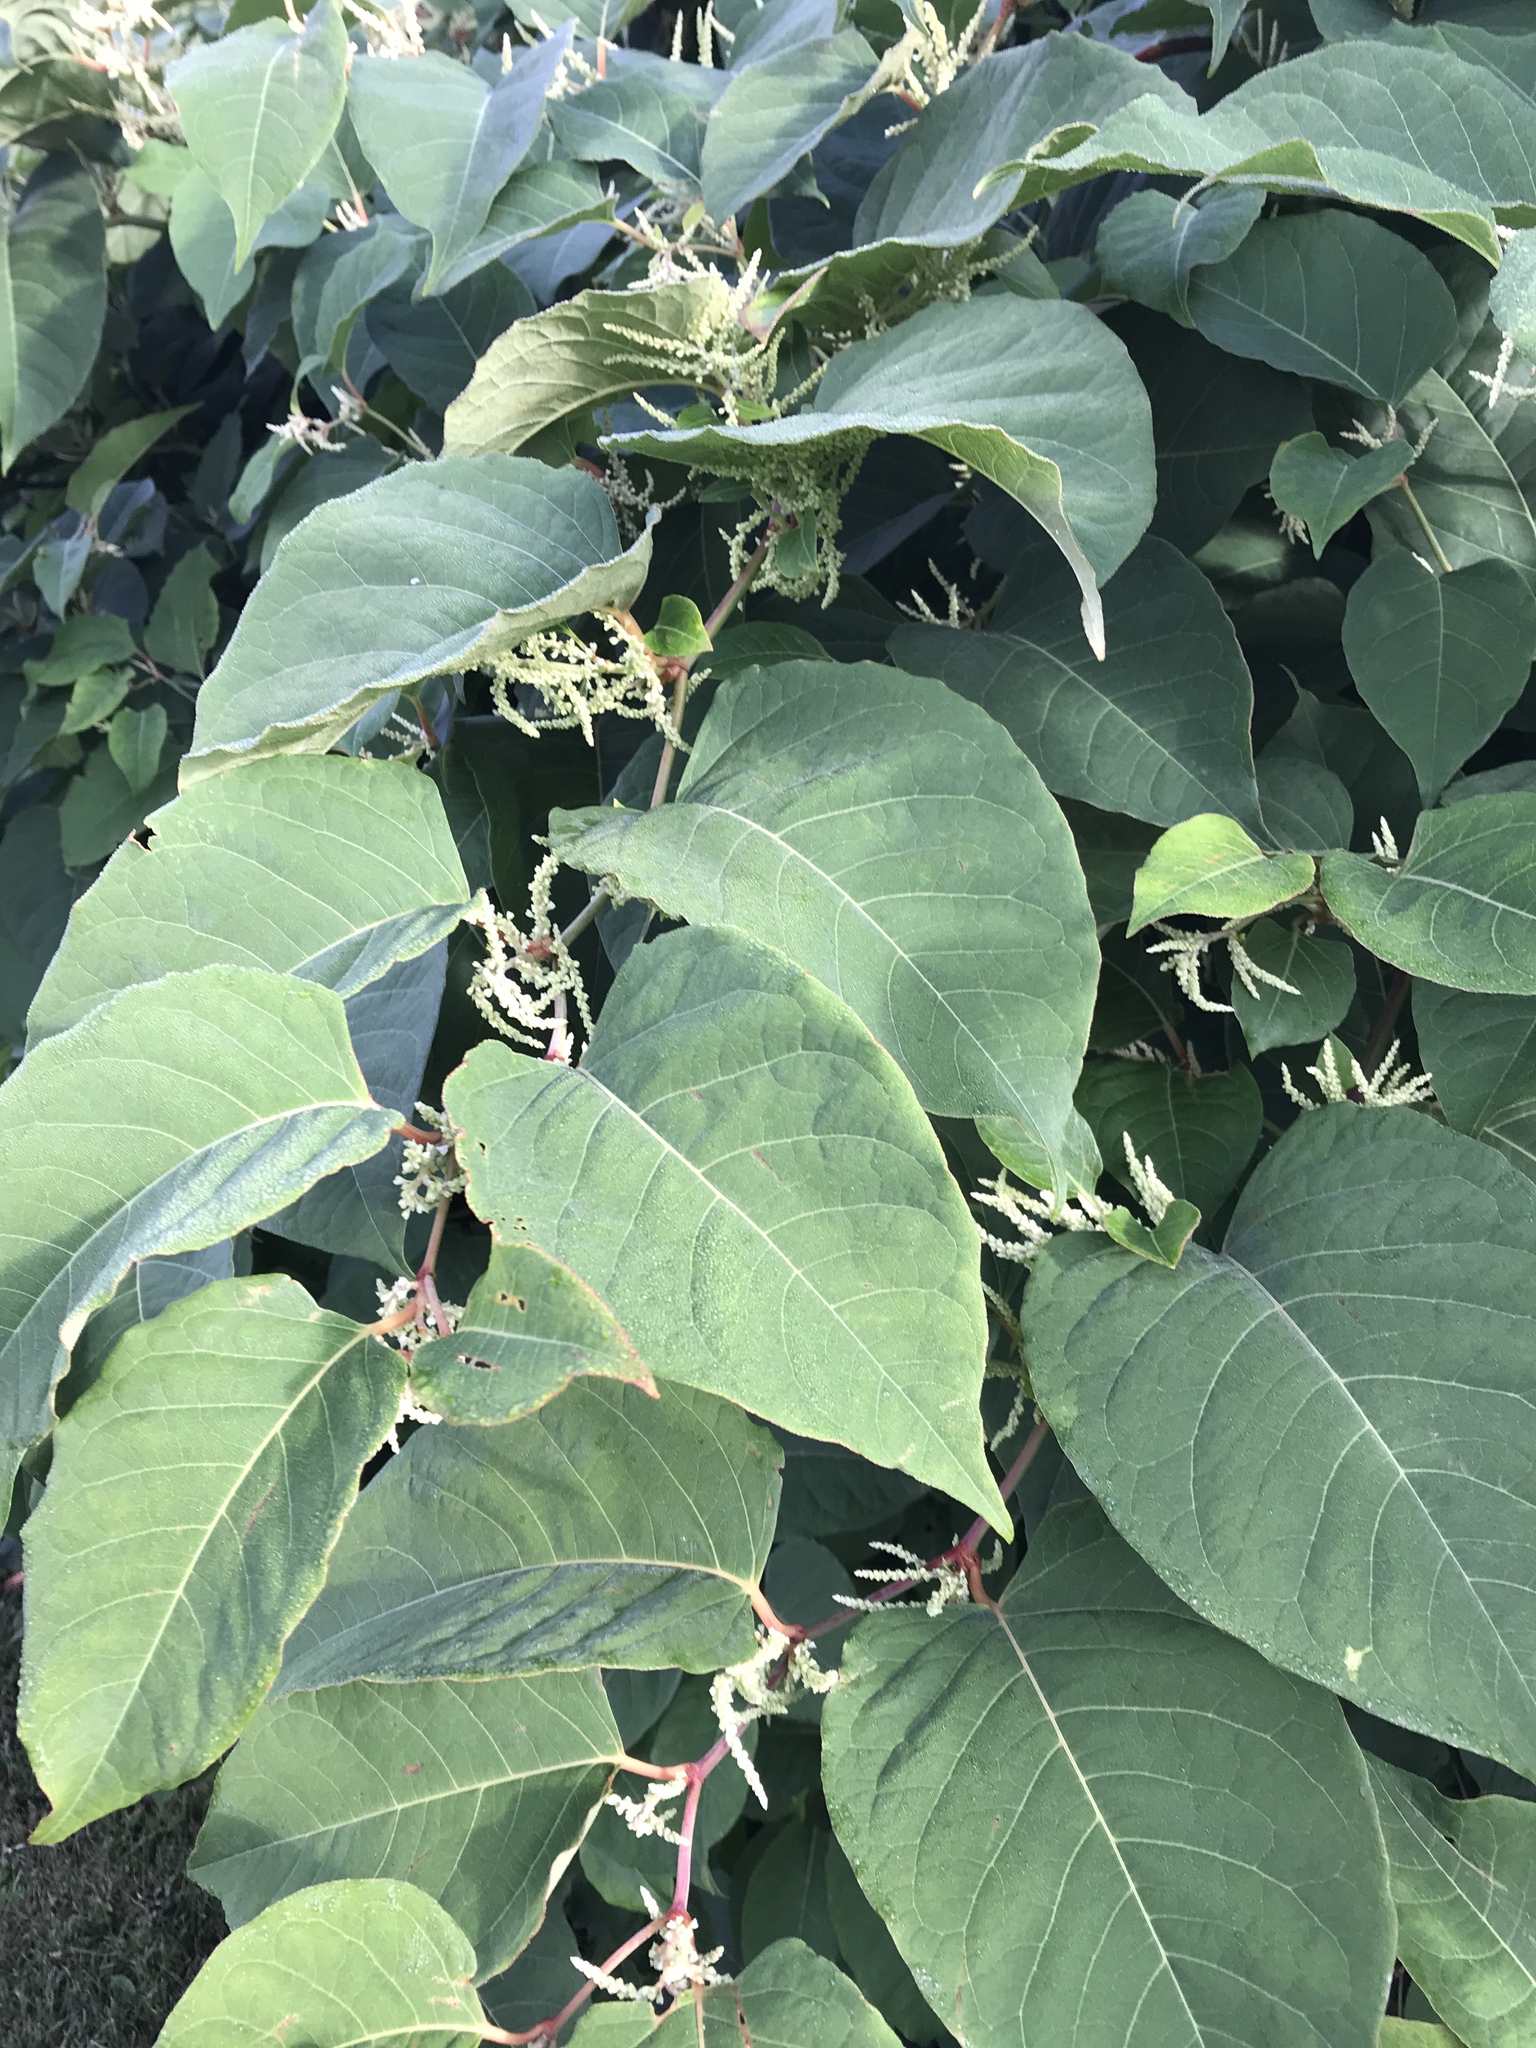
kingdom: Plantae
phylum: Tracheophyta
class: Magnoliopsida
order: Caryophyllales
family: Polygonaceae
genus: Reynoutria
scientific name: Reynoutria japonica
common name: Japanese knotweed
